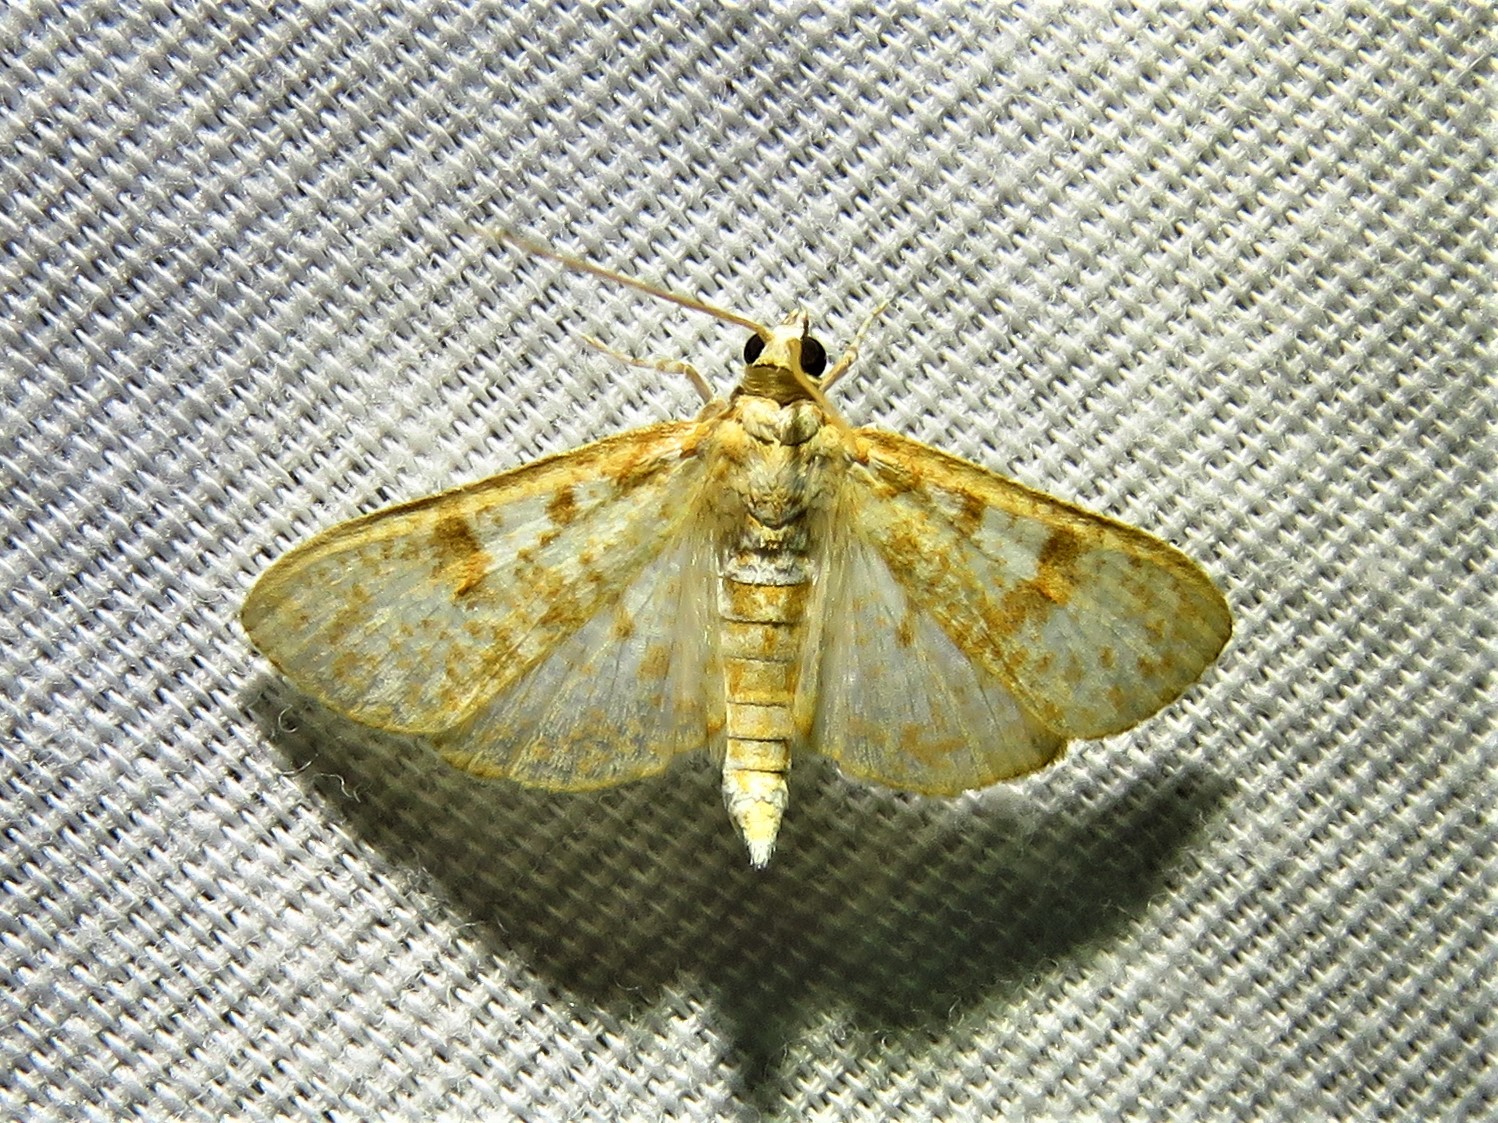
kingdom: Animalia
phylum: Arthropoda
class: Insecta
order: Lepidoptera
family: Crambidae
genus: Palpita
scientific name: Palpita freemanalis
